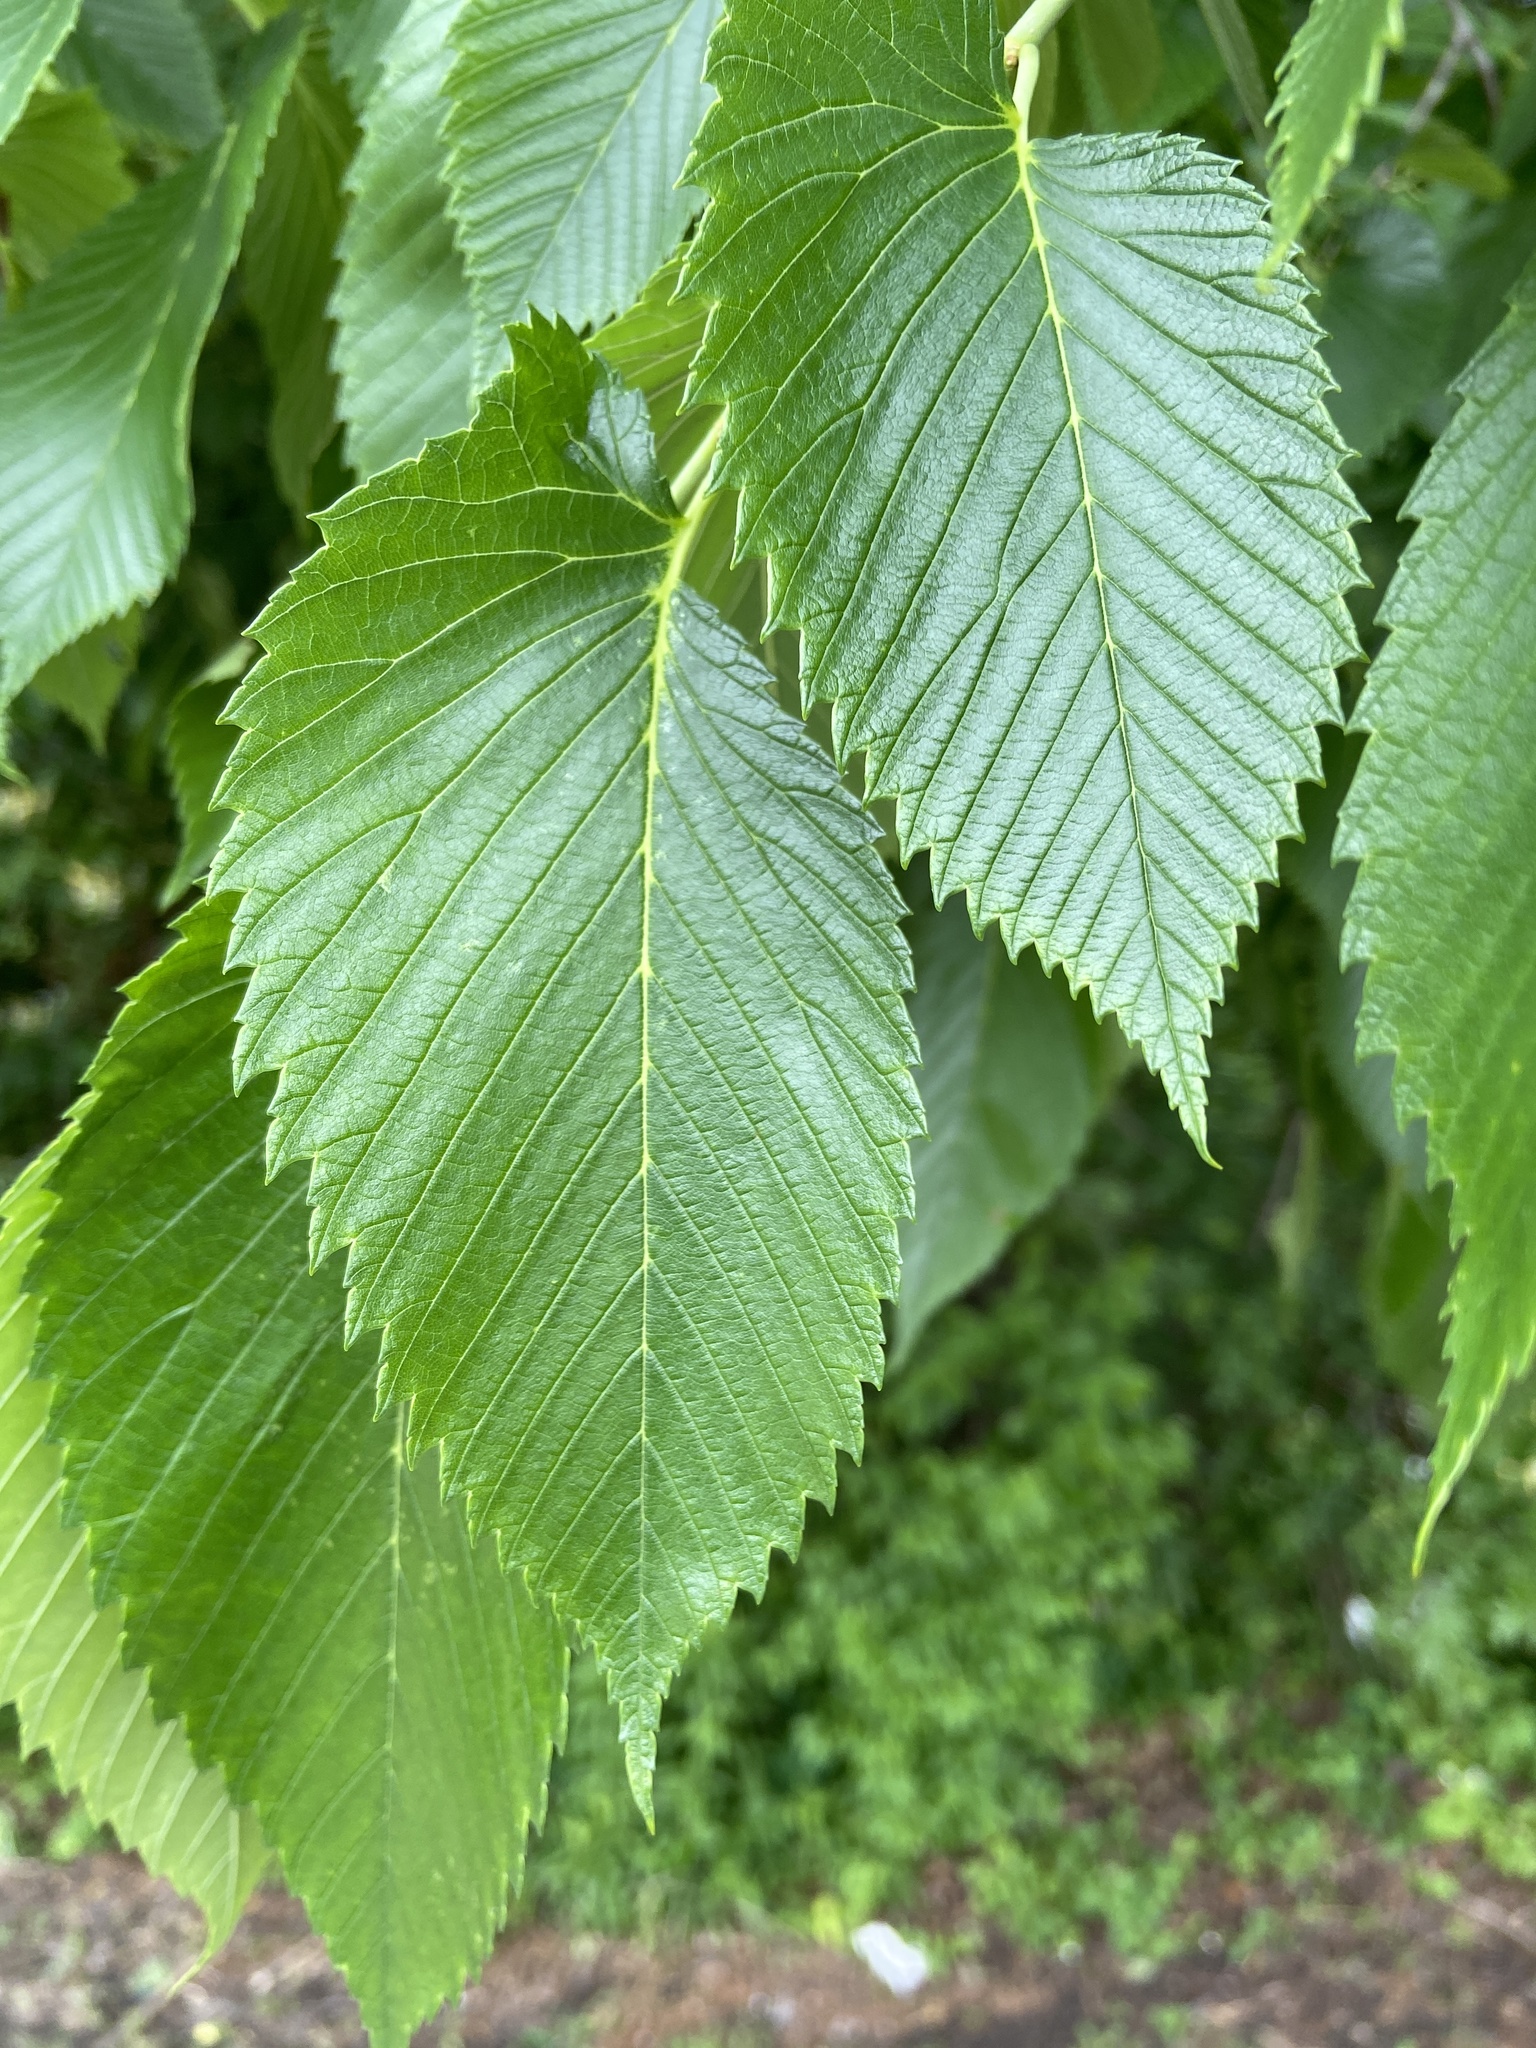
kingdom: Plantae
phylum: Tracheophyta
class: Magnoliopsida
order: Rosales
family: Ulmaceae
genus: Ulmus
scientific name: Ulmus americana
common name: American elm
